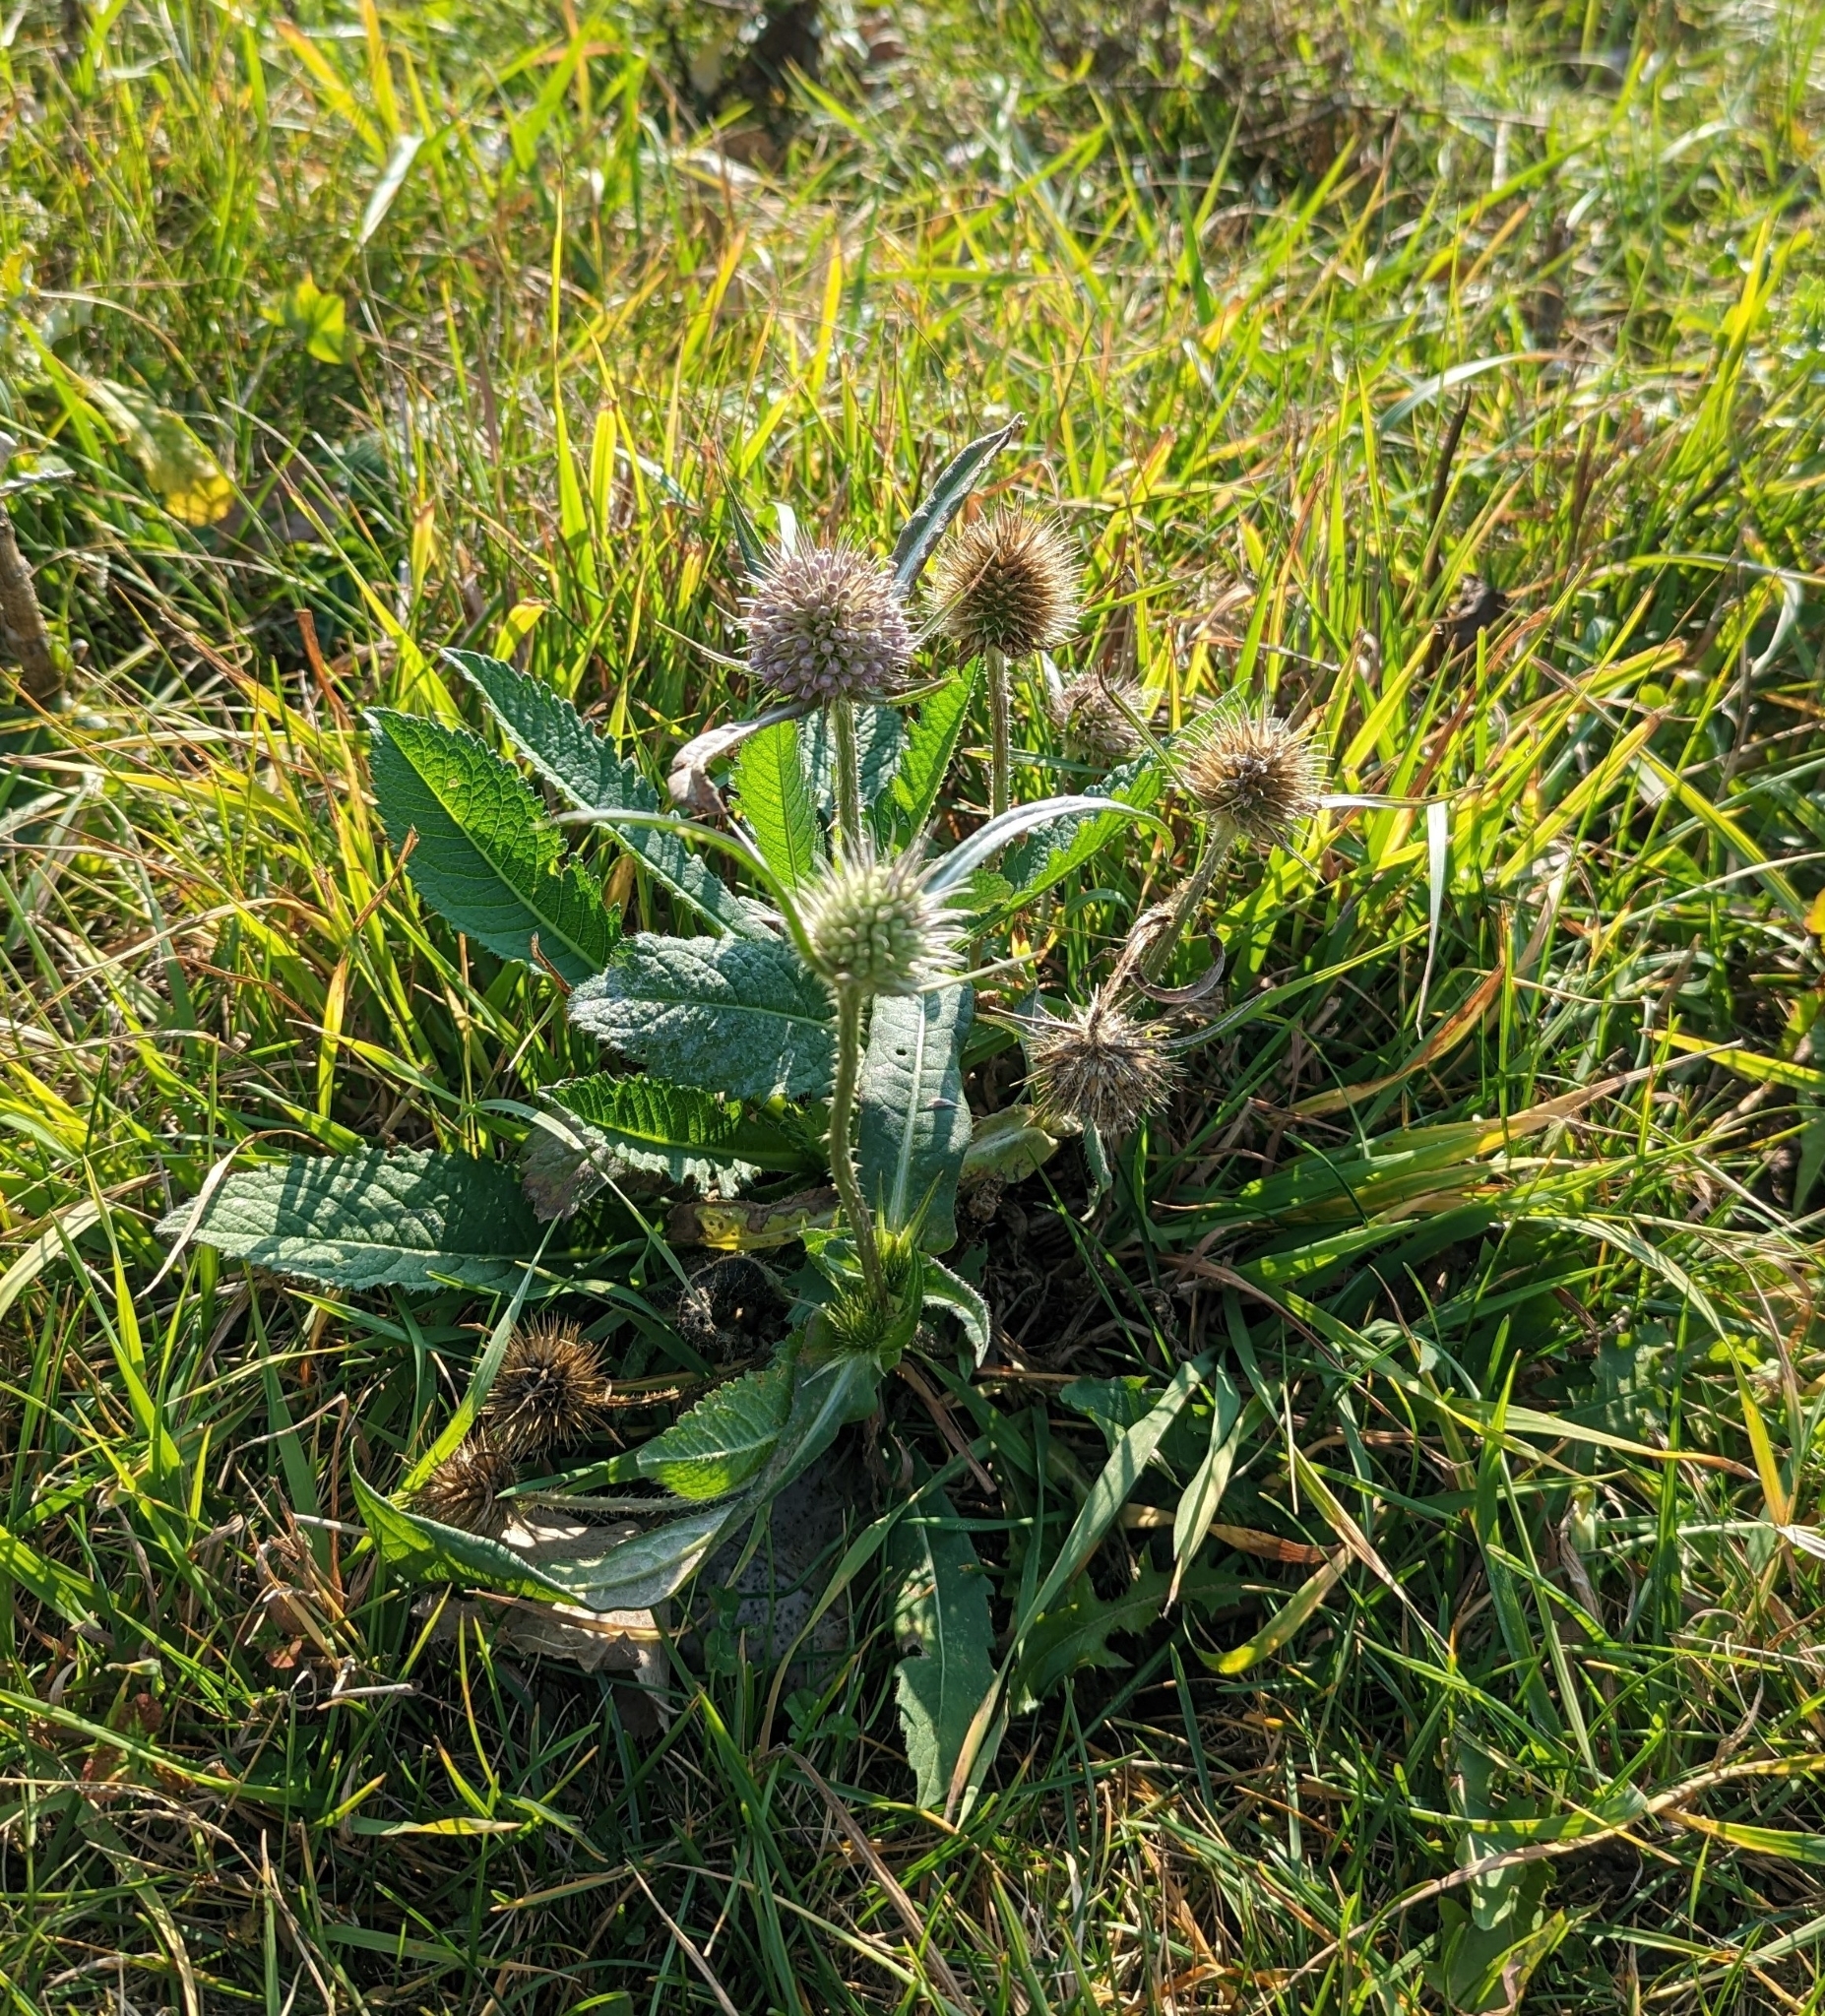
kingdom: Plantae
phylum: Tracheophyta
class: Magnoliopsida
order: Dipsacales
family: Caprifoliaceae
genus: Dipsacus
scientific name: Dipsacus laciniatus
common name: Cut-leaved teasel
